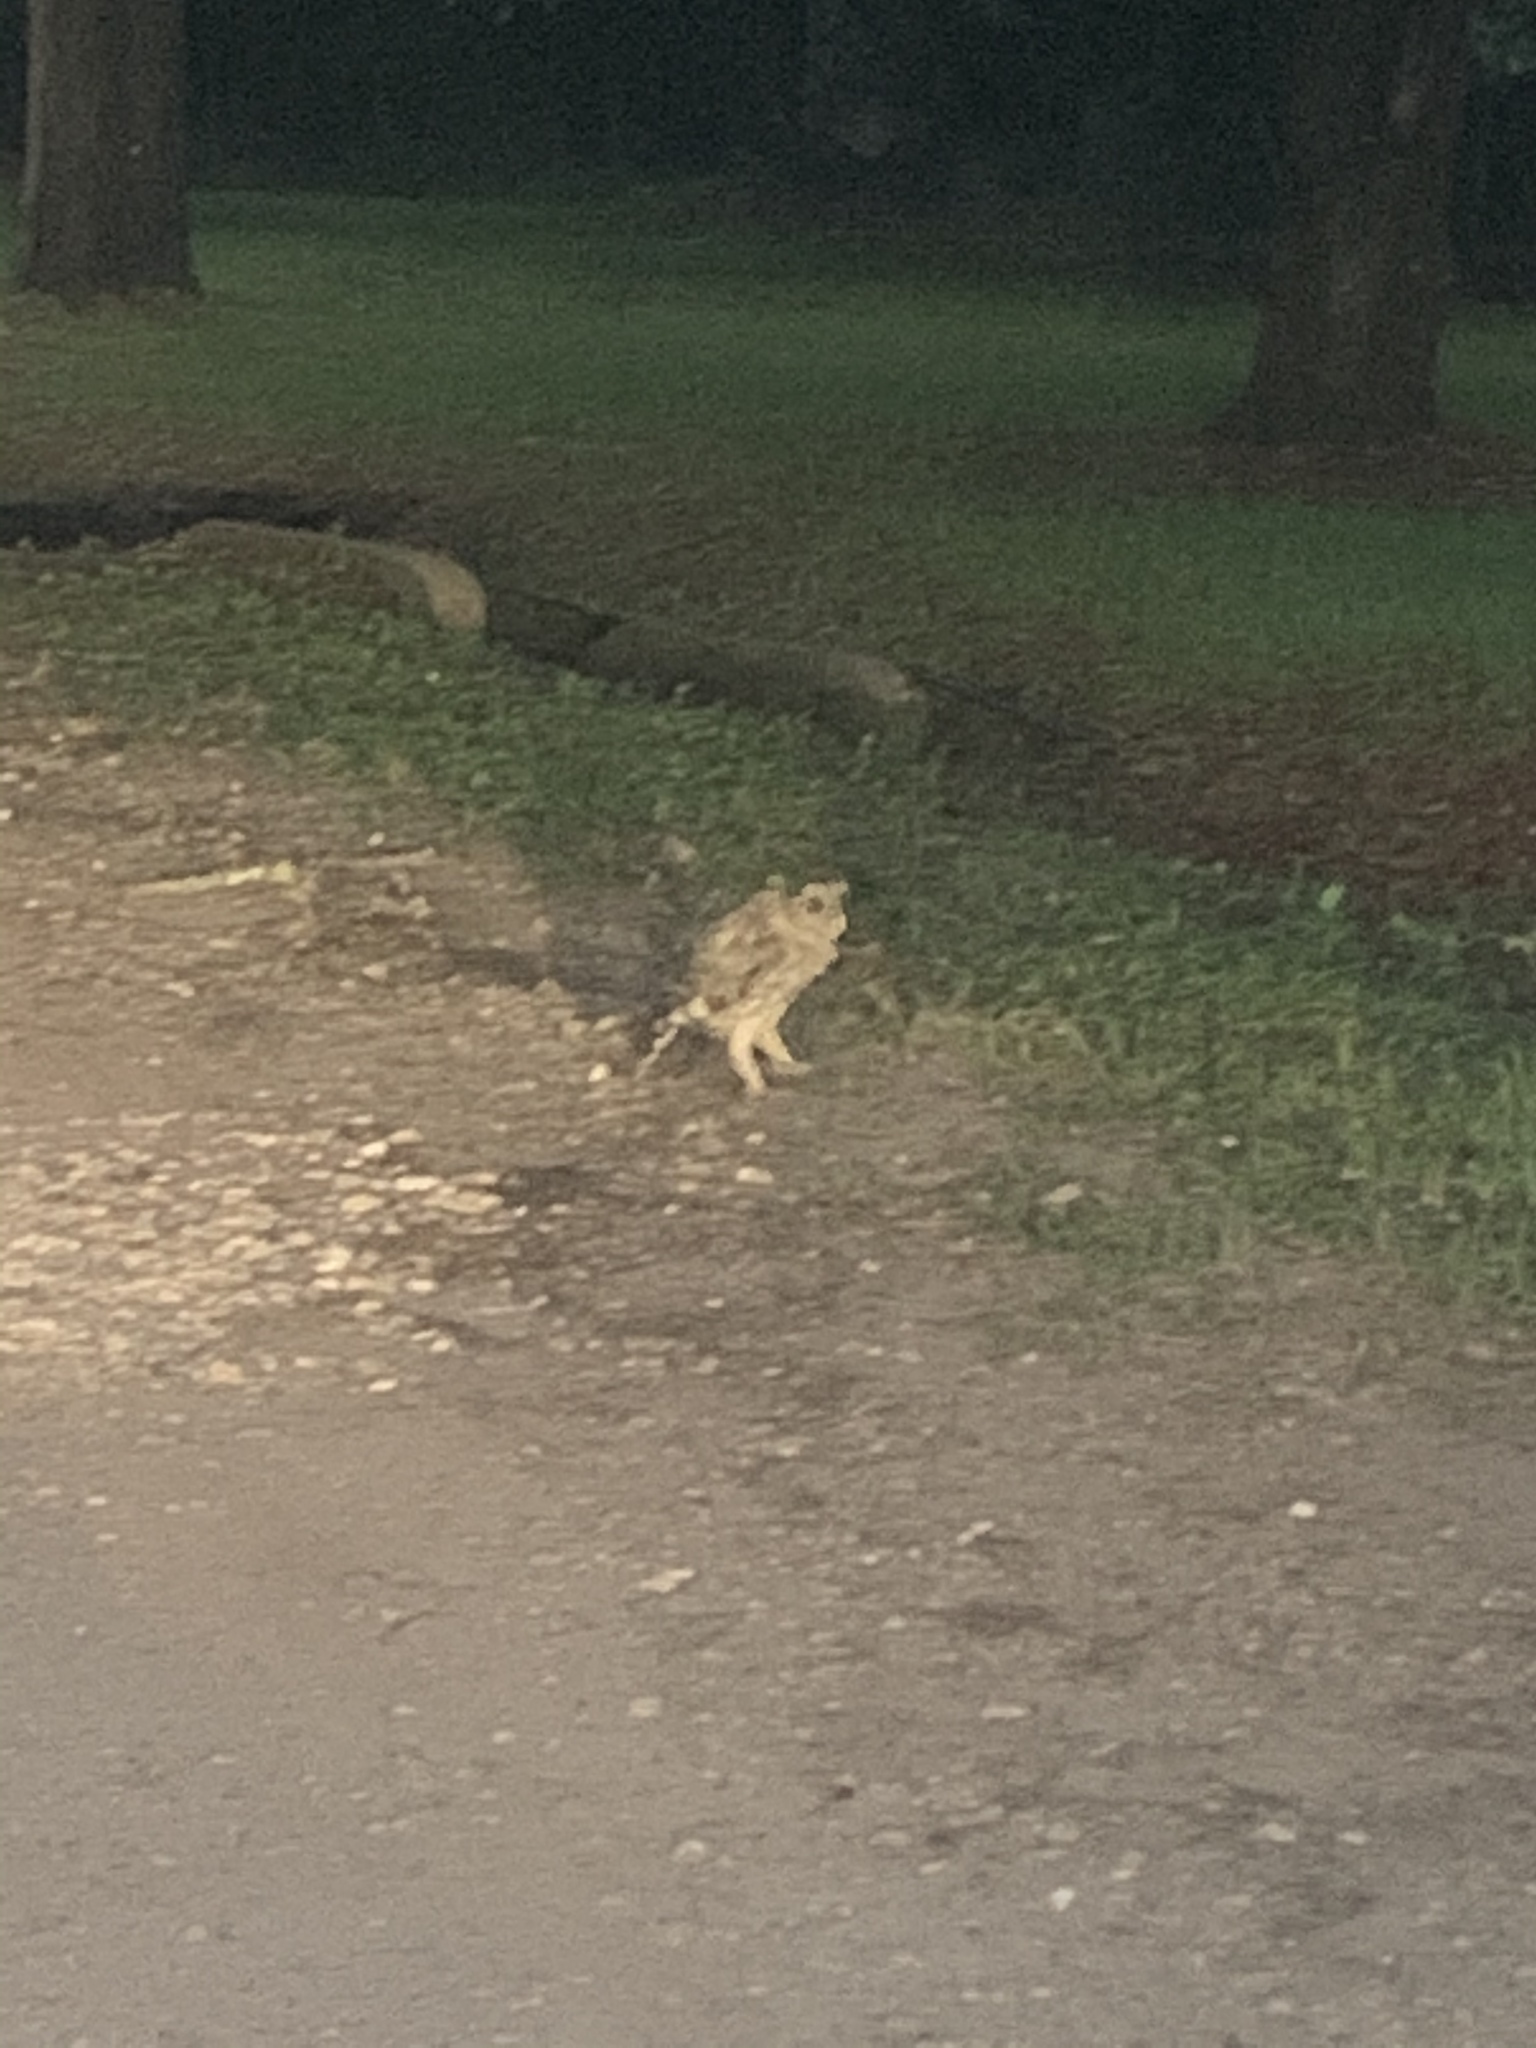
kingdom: Animalia
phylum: Chordata
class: Aves
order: Strigiformes
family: Strigidae
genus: Strix
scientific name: Strix varia
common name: Barred owl
